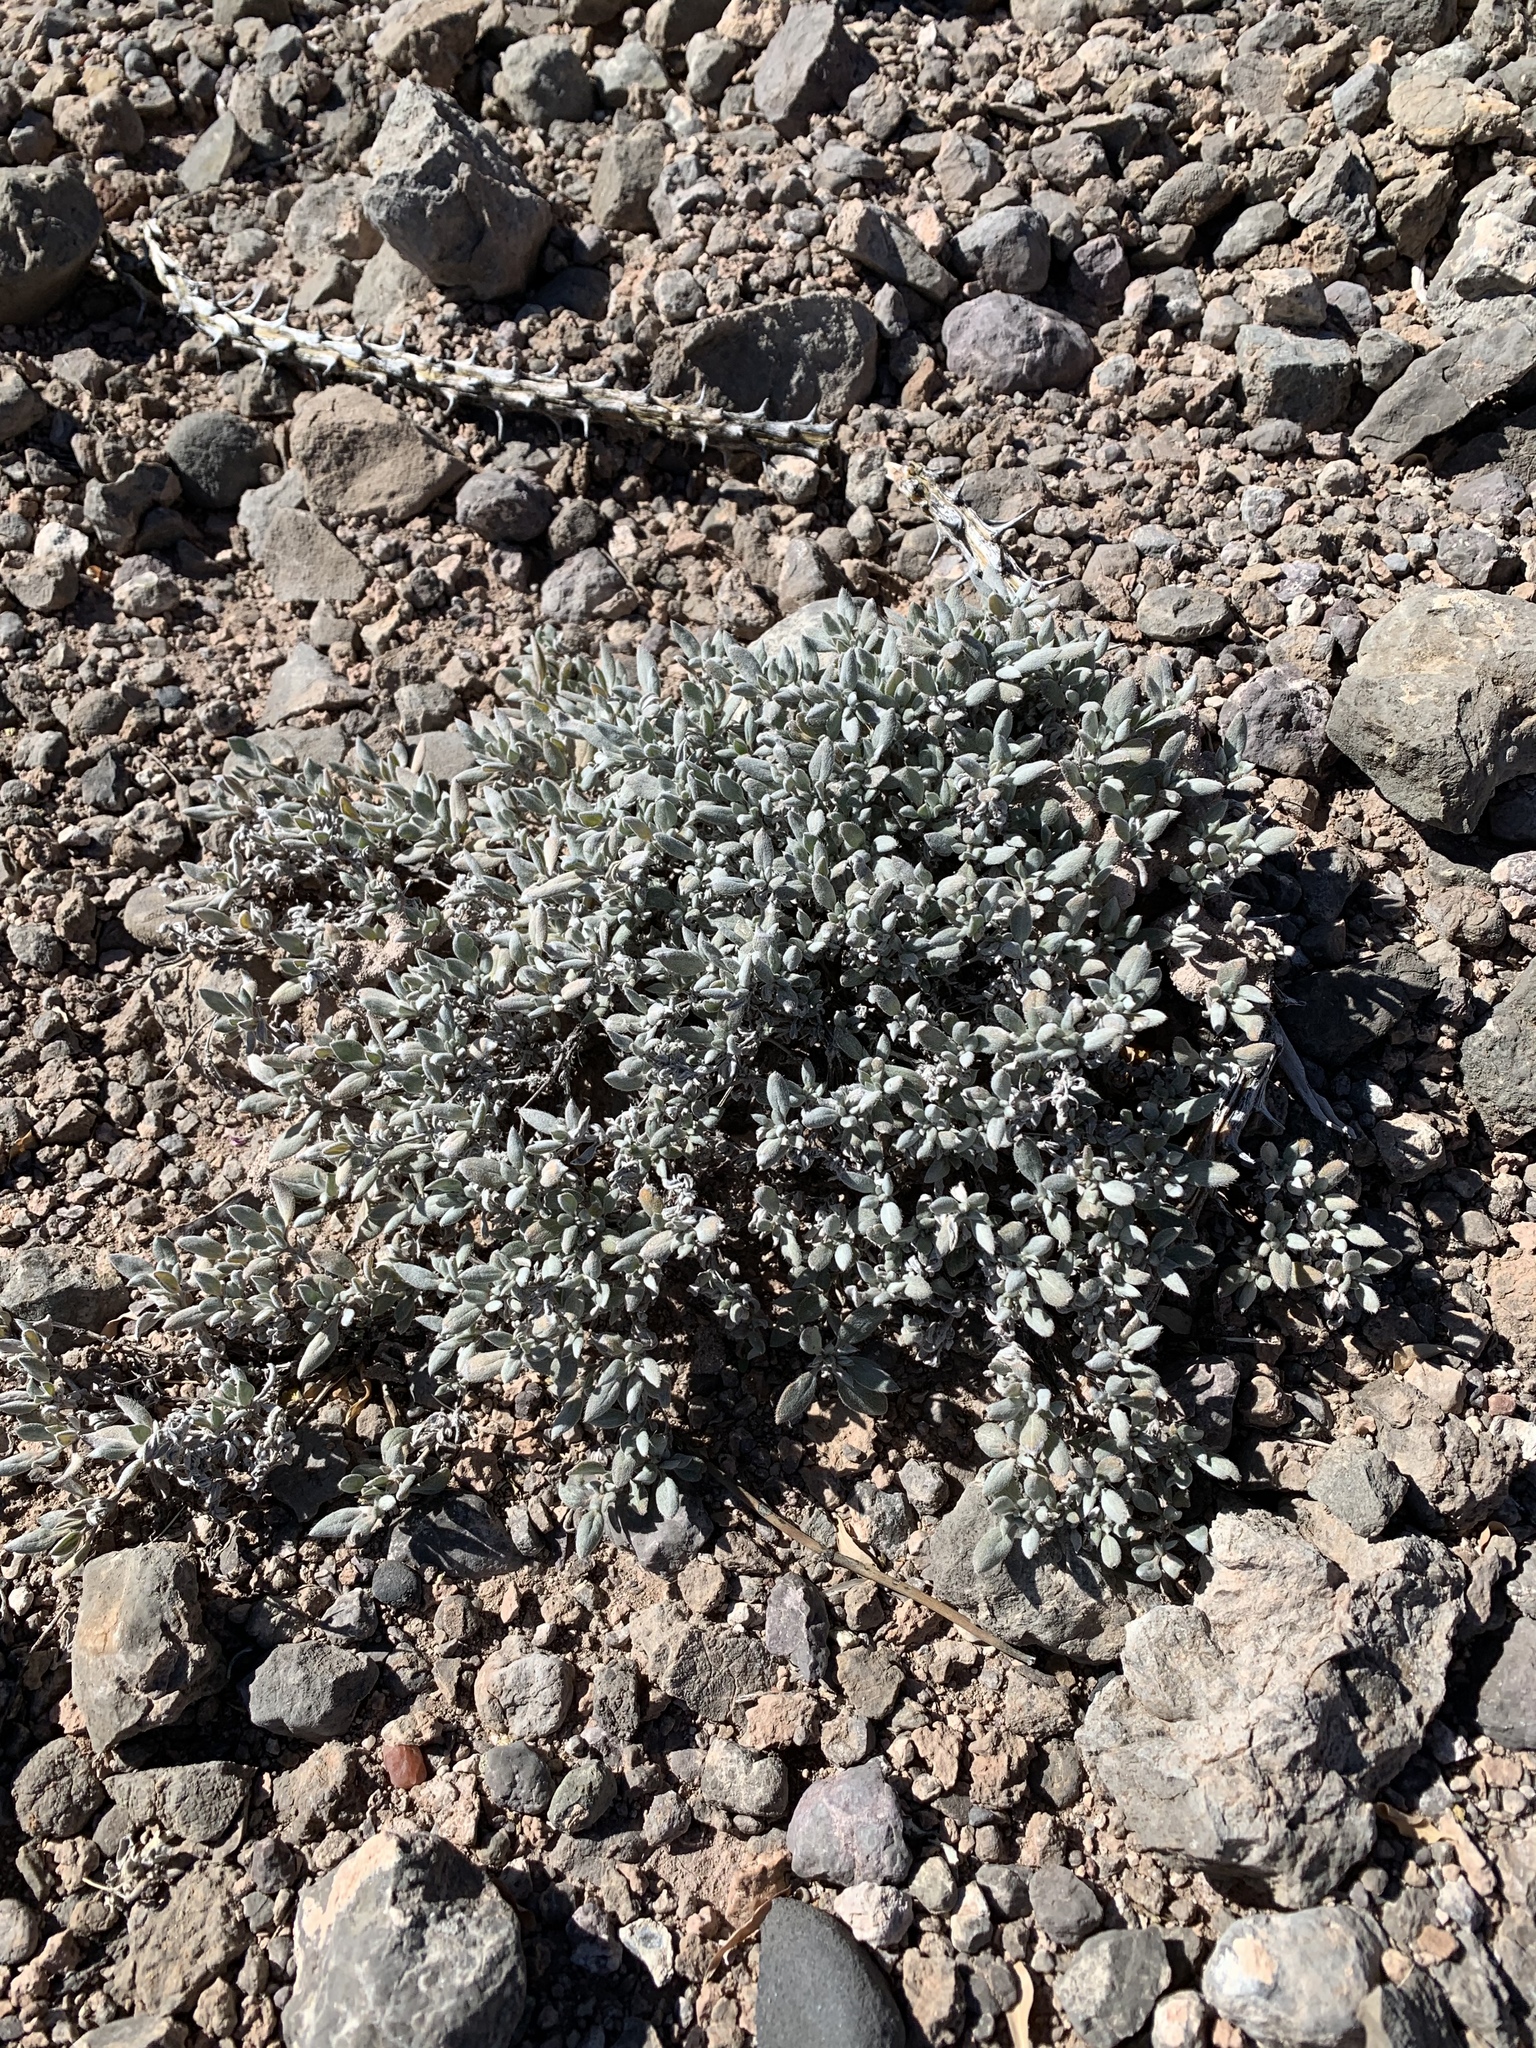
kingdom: Plantae
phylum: Tracheophyta
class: Magnoliopsida
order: Boraginales
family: Ehretiaceae
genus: Tiquilia
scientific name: Tiquilia canescens
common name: Hairy tiquilia
